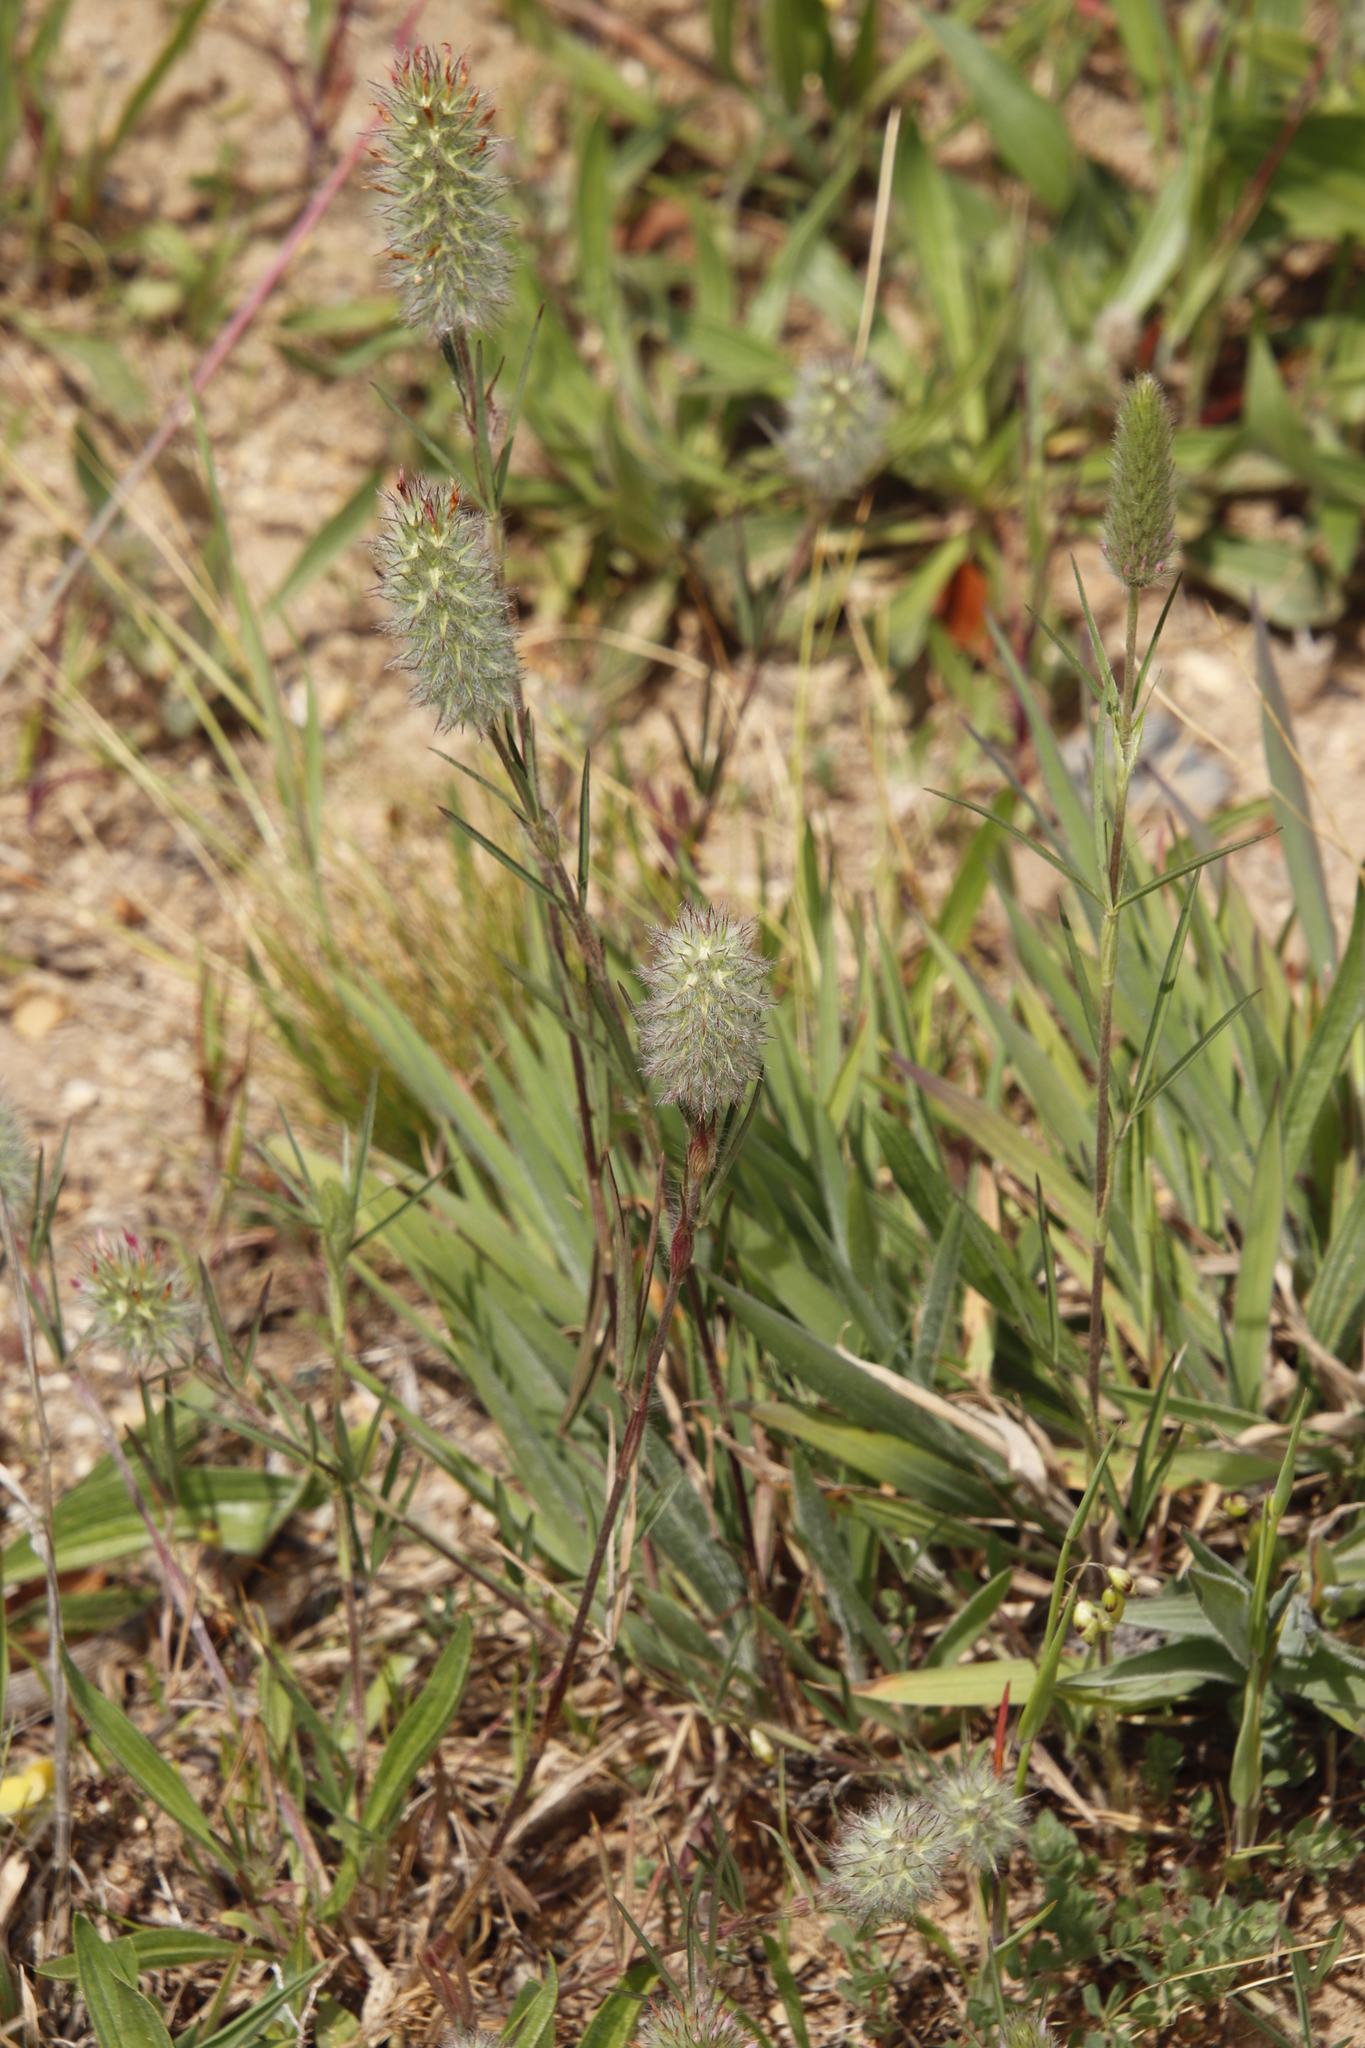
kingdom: Plantae
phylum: Tracheophyta
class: Magnoliopsida
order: Fabales
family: Fabaceae
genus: Trifolium
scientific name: Trifolium angustifolium
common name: Narrow clover
